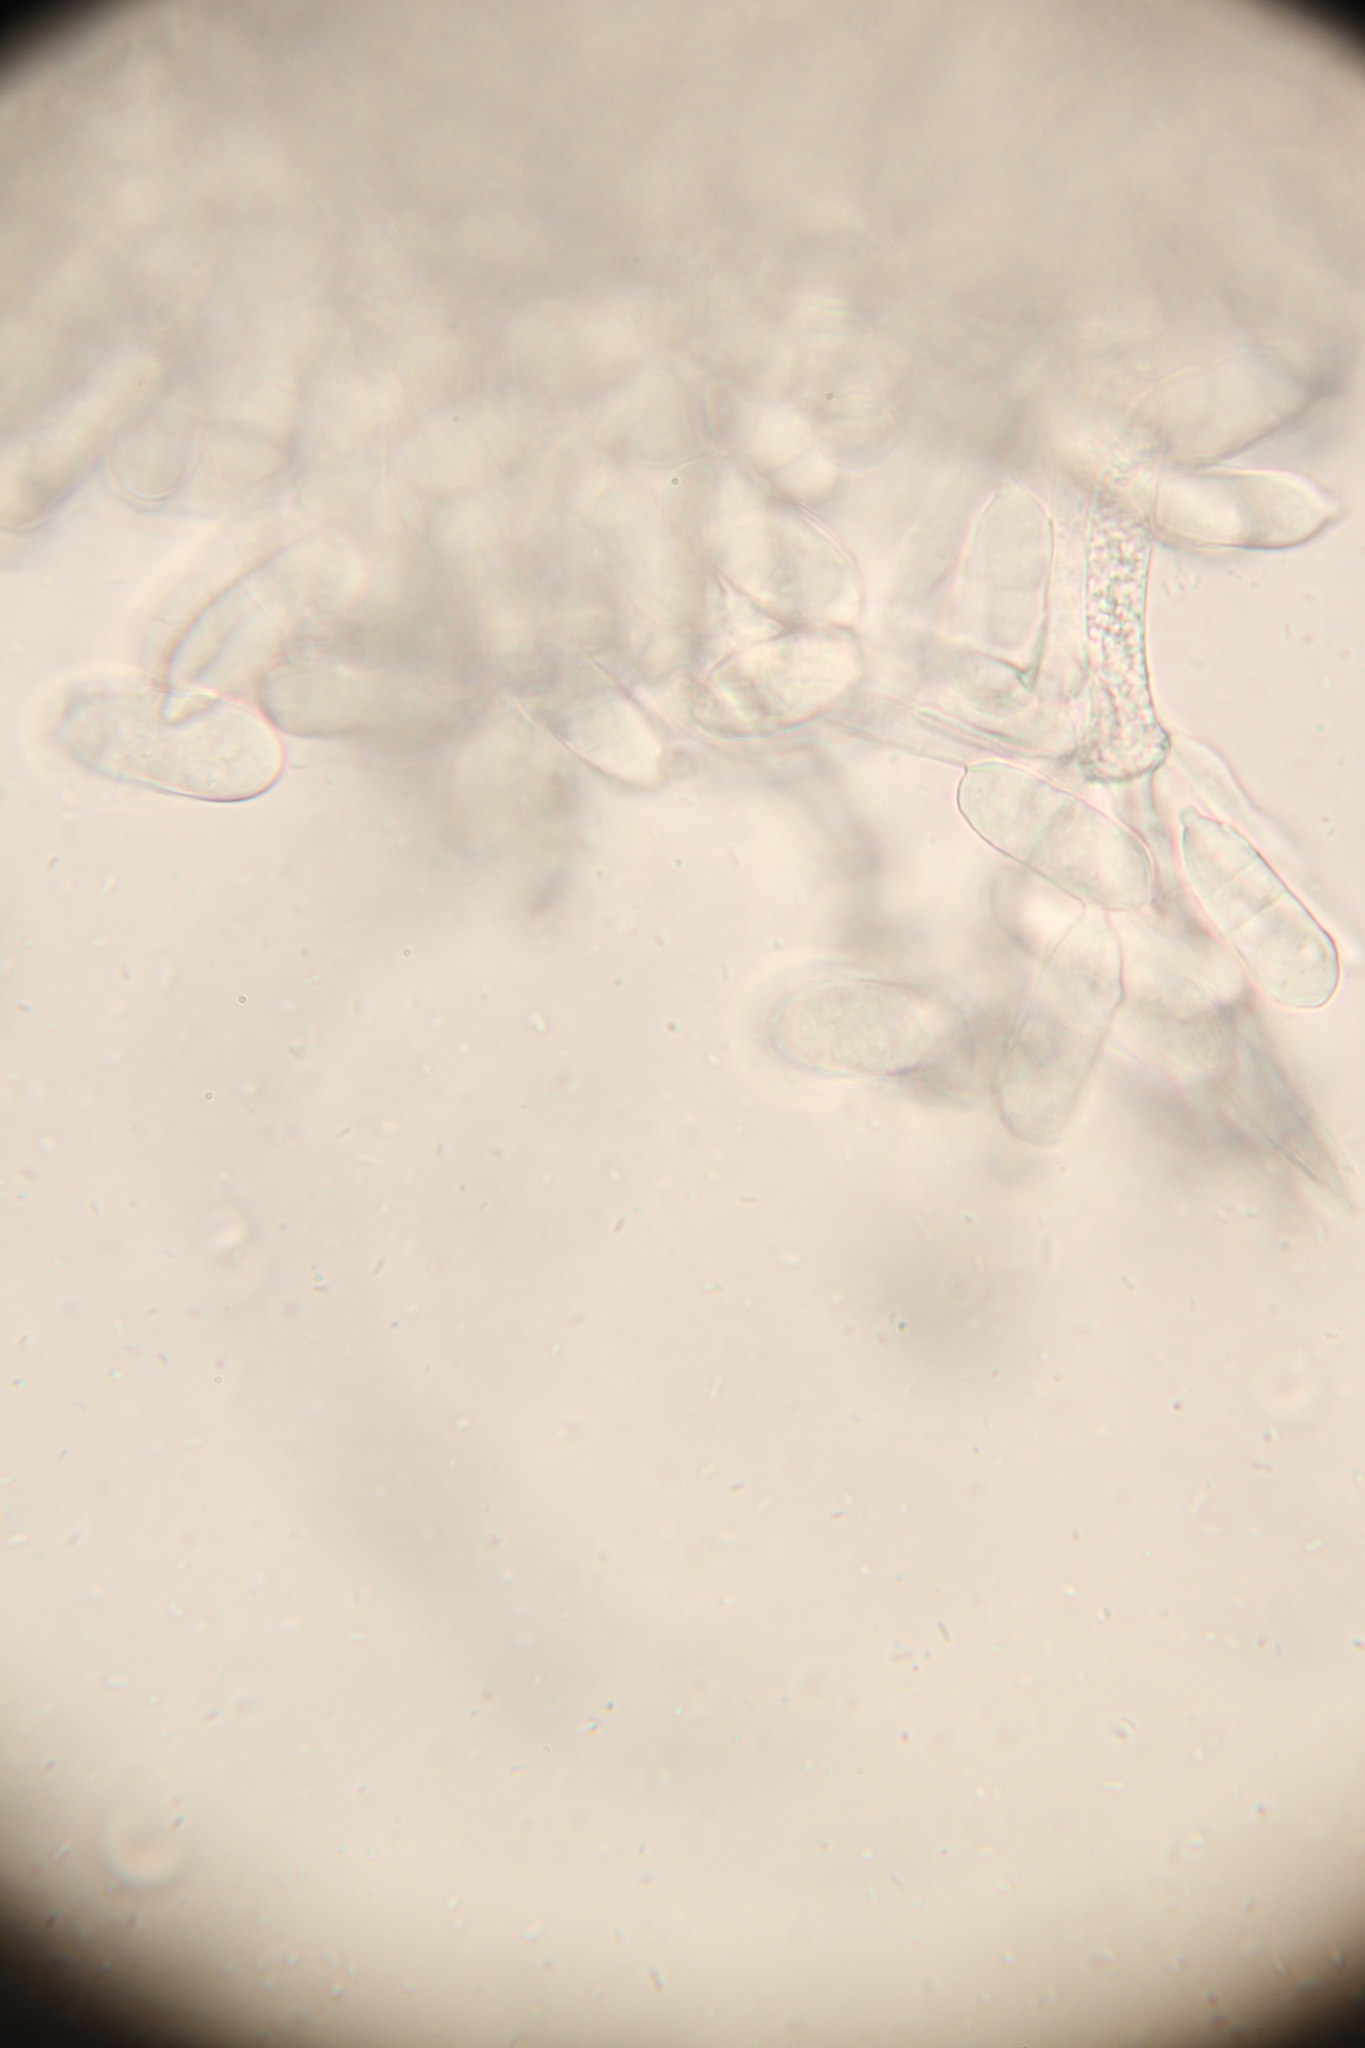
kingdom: Fungi
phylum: Ascomycota
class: Sordariomycetes
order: Hypocreales
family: Hypocreaceae
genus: Trichoderma
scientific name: Trichoderma avellaneum
